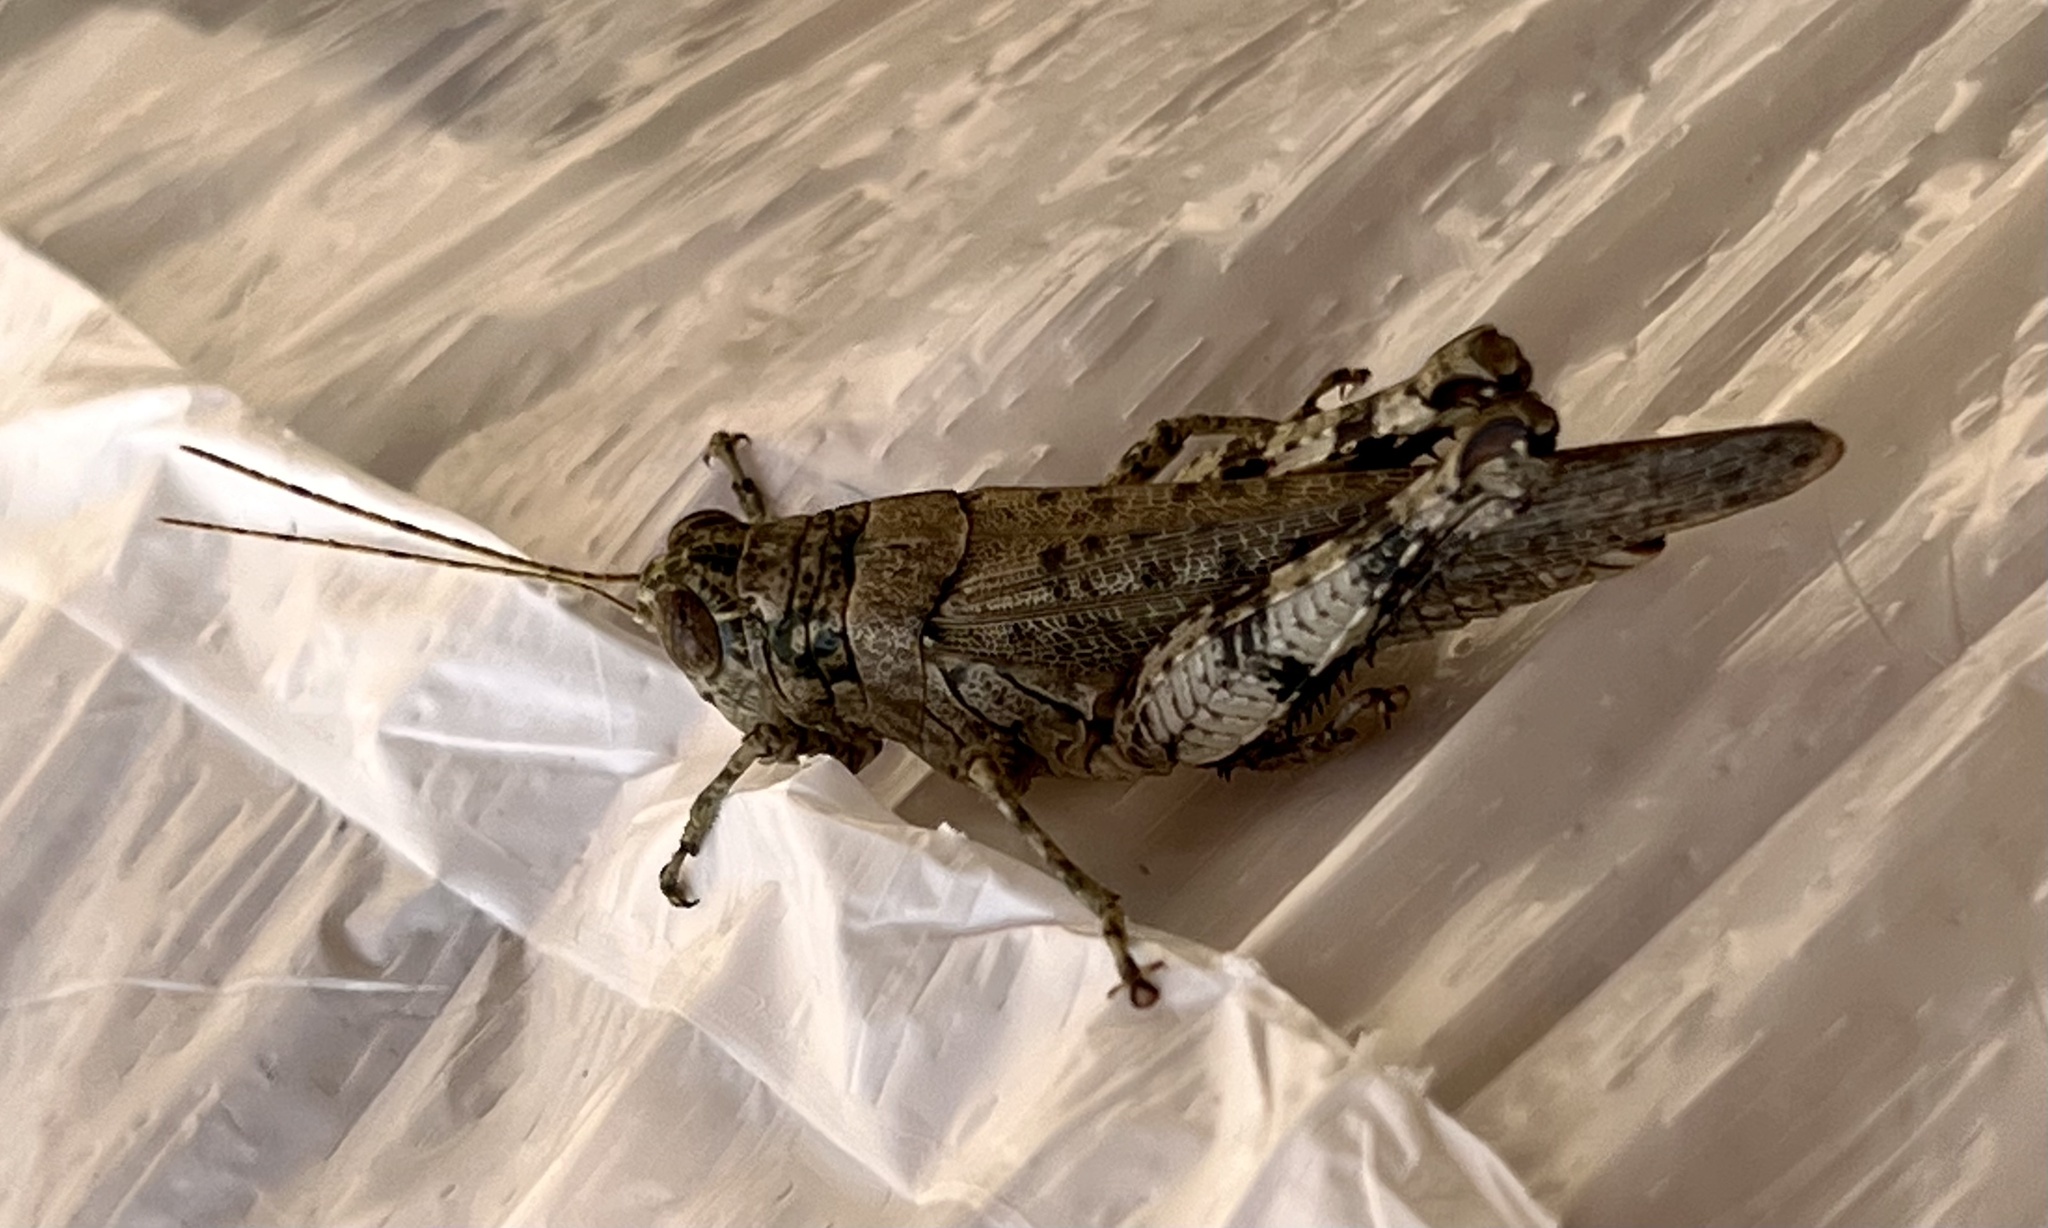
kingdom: Animalia
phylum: Arthropoda
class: Insecta
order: Orthoptera
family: Acrididae
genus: Melanoplus
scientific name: Melanoplus punctulatus
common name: Pine-tree spur-throat grasshopper
